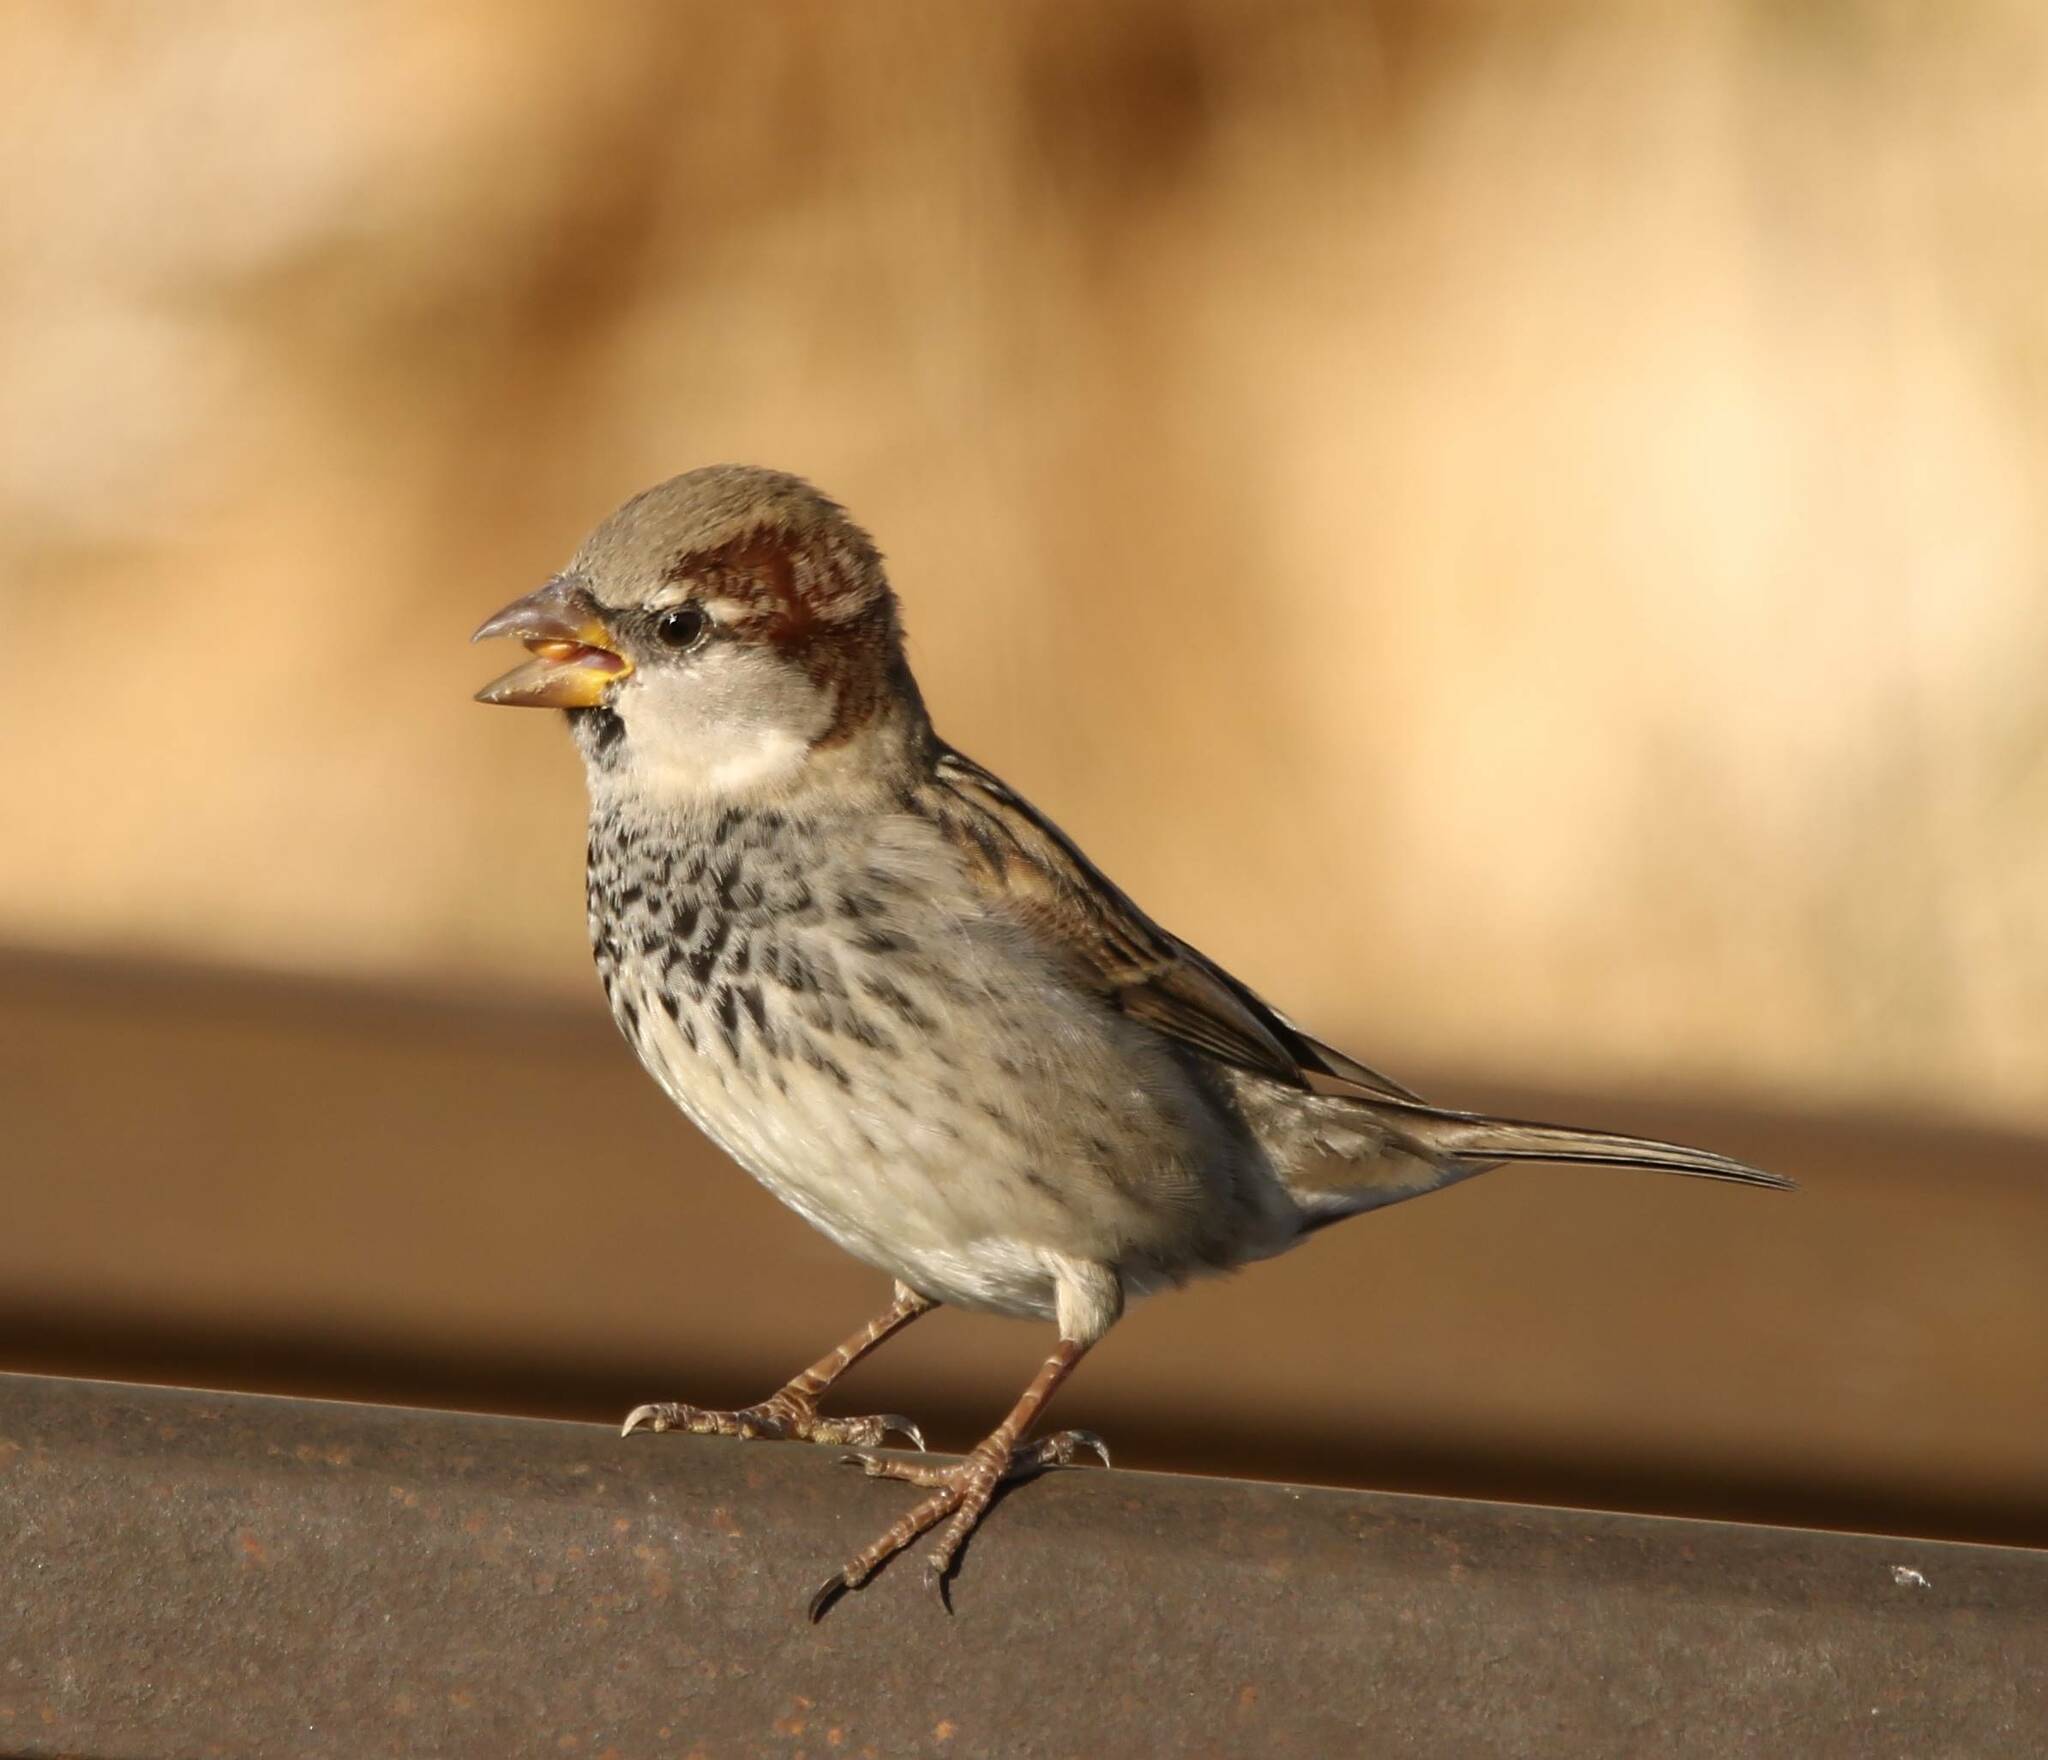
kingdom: Animalia
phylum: Chordata
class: Aves
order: Passeriformes
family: Passeridae
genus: Passer
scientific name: Passer domesticus
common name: House sparrow
